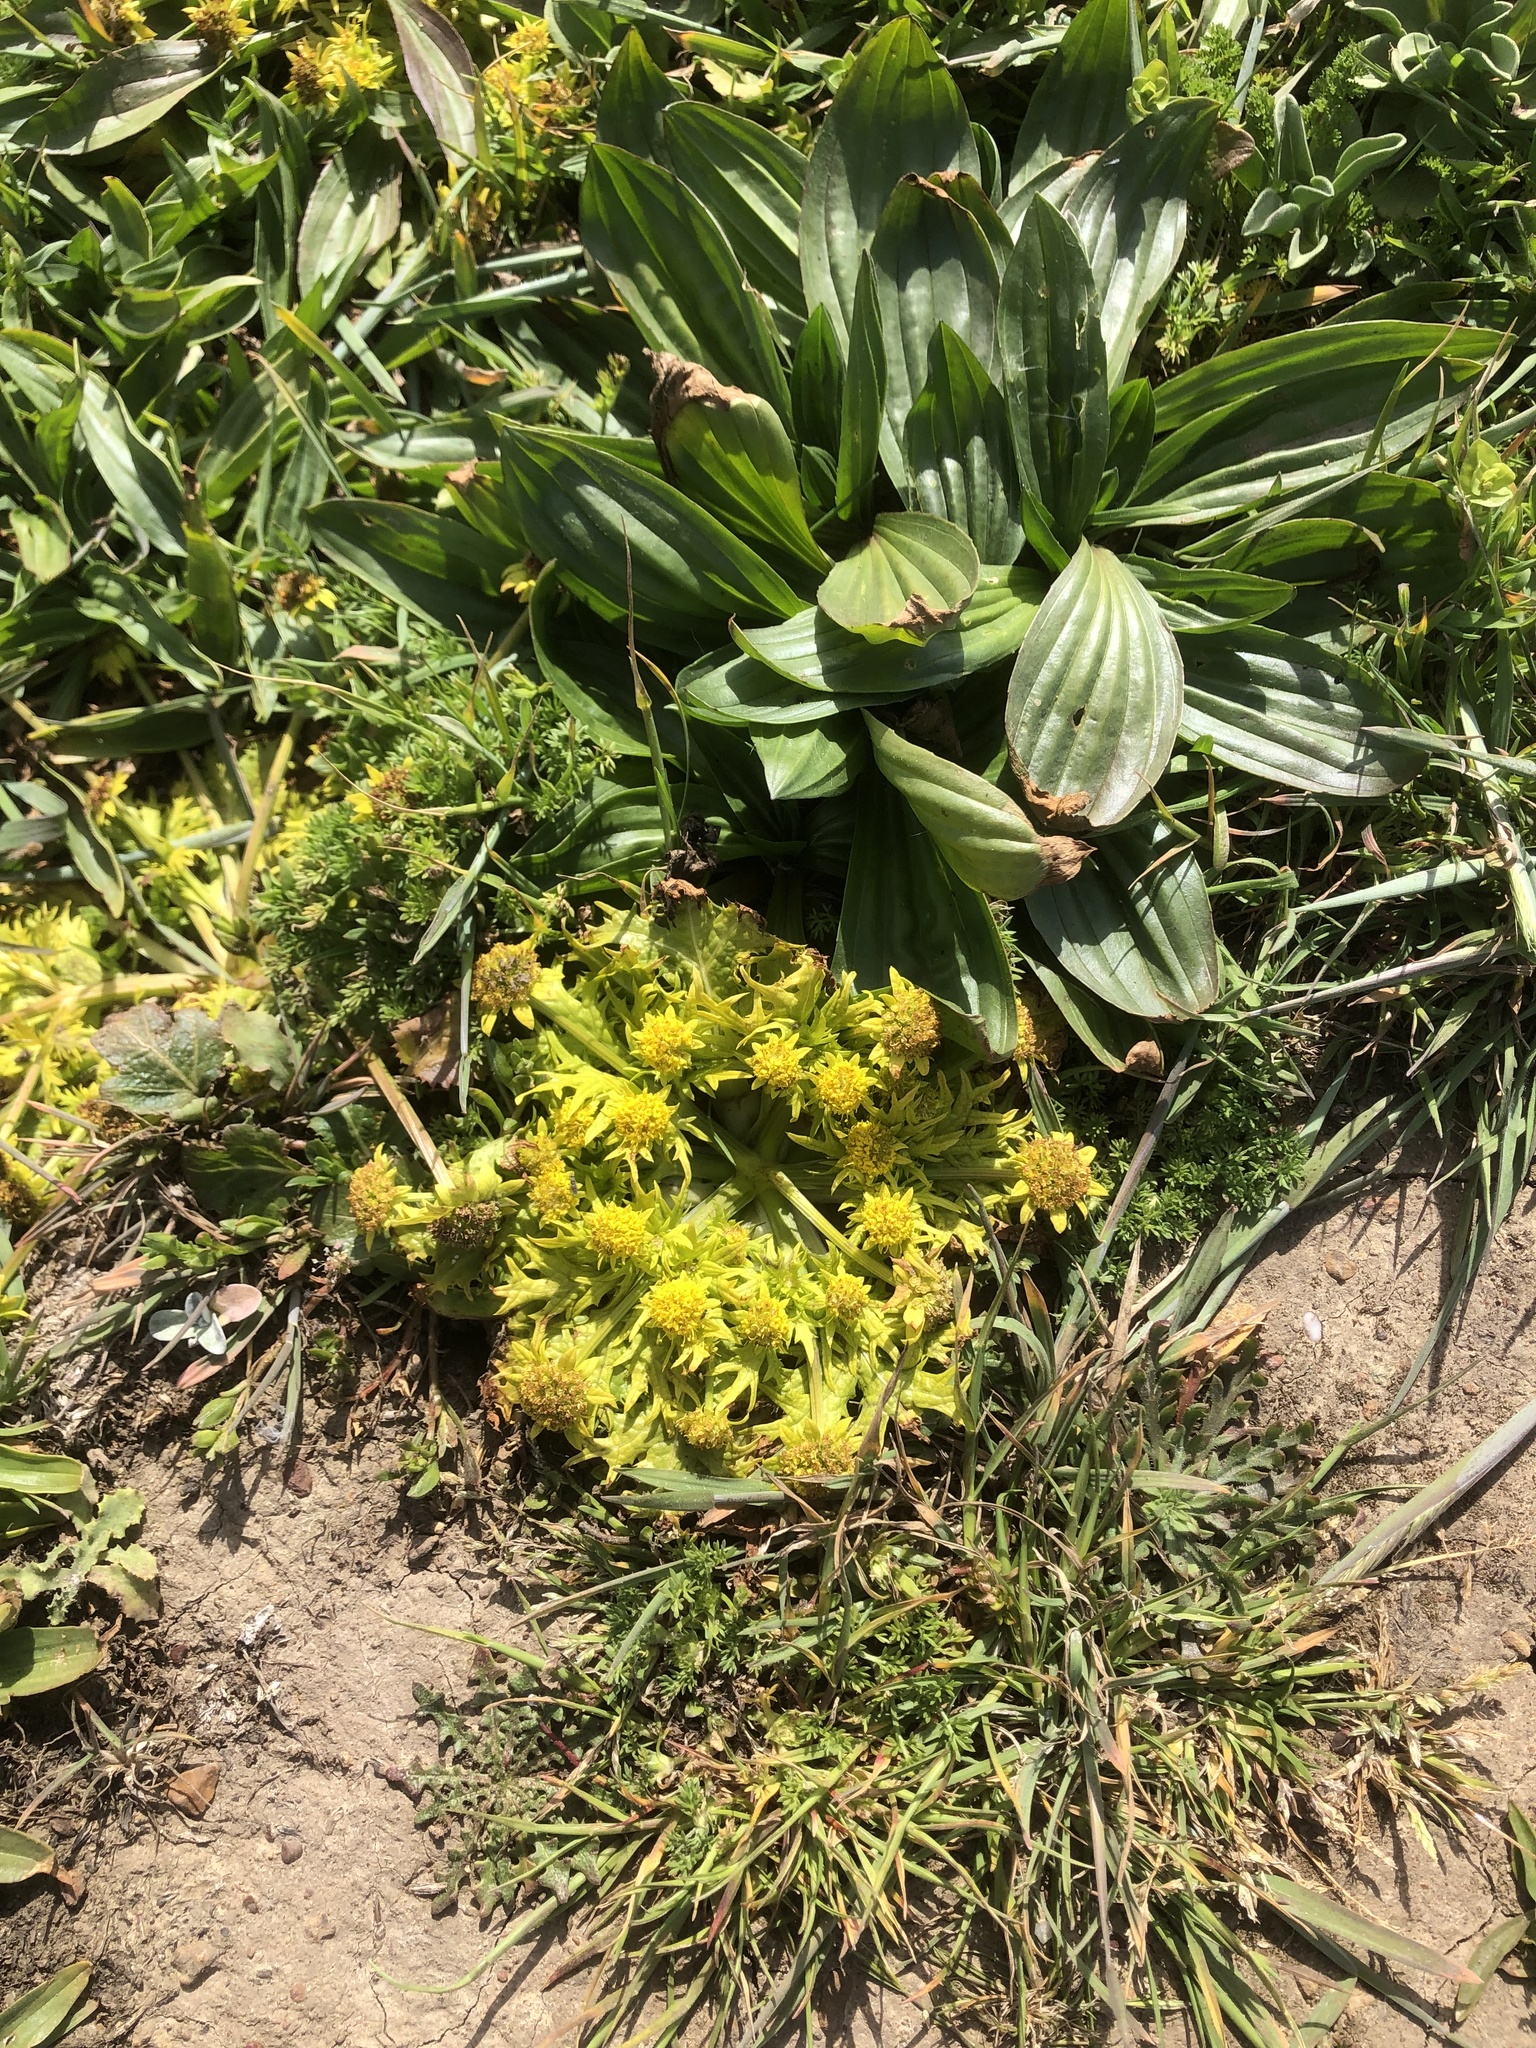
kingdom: Plantae
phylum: Tracheophyta
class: Magnoliopsida
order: Apiales
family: Apiaceae
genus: Sanicula
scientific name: Sanicula arctopoides
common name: Footsteps-of-spring
